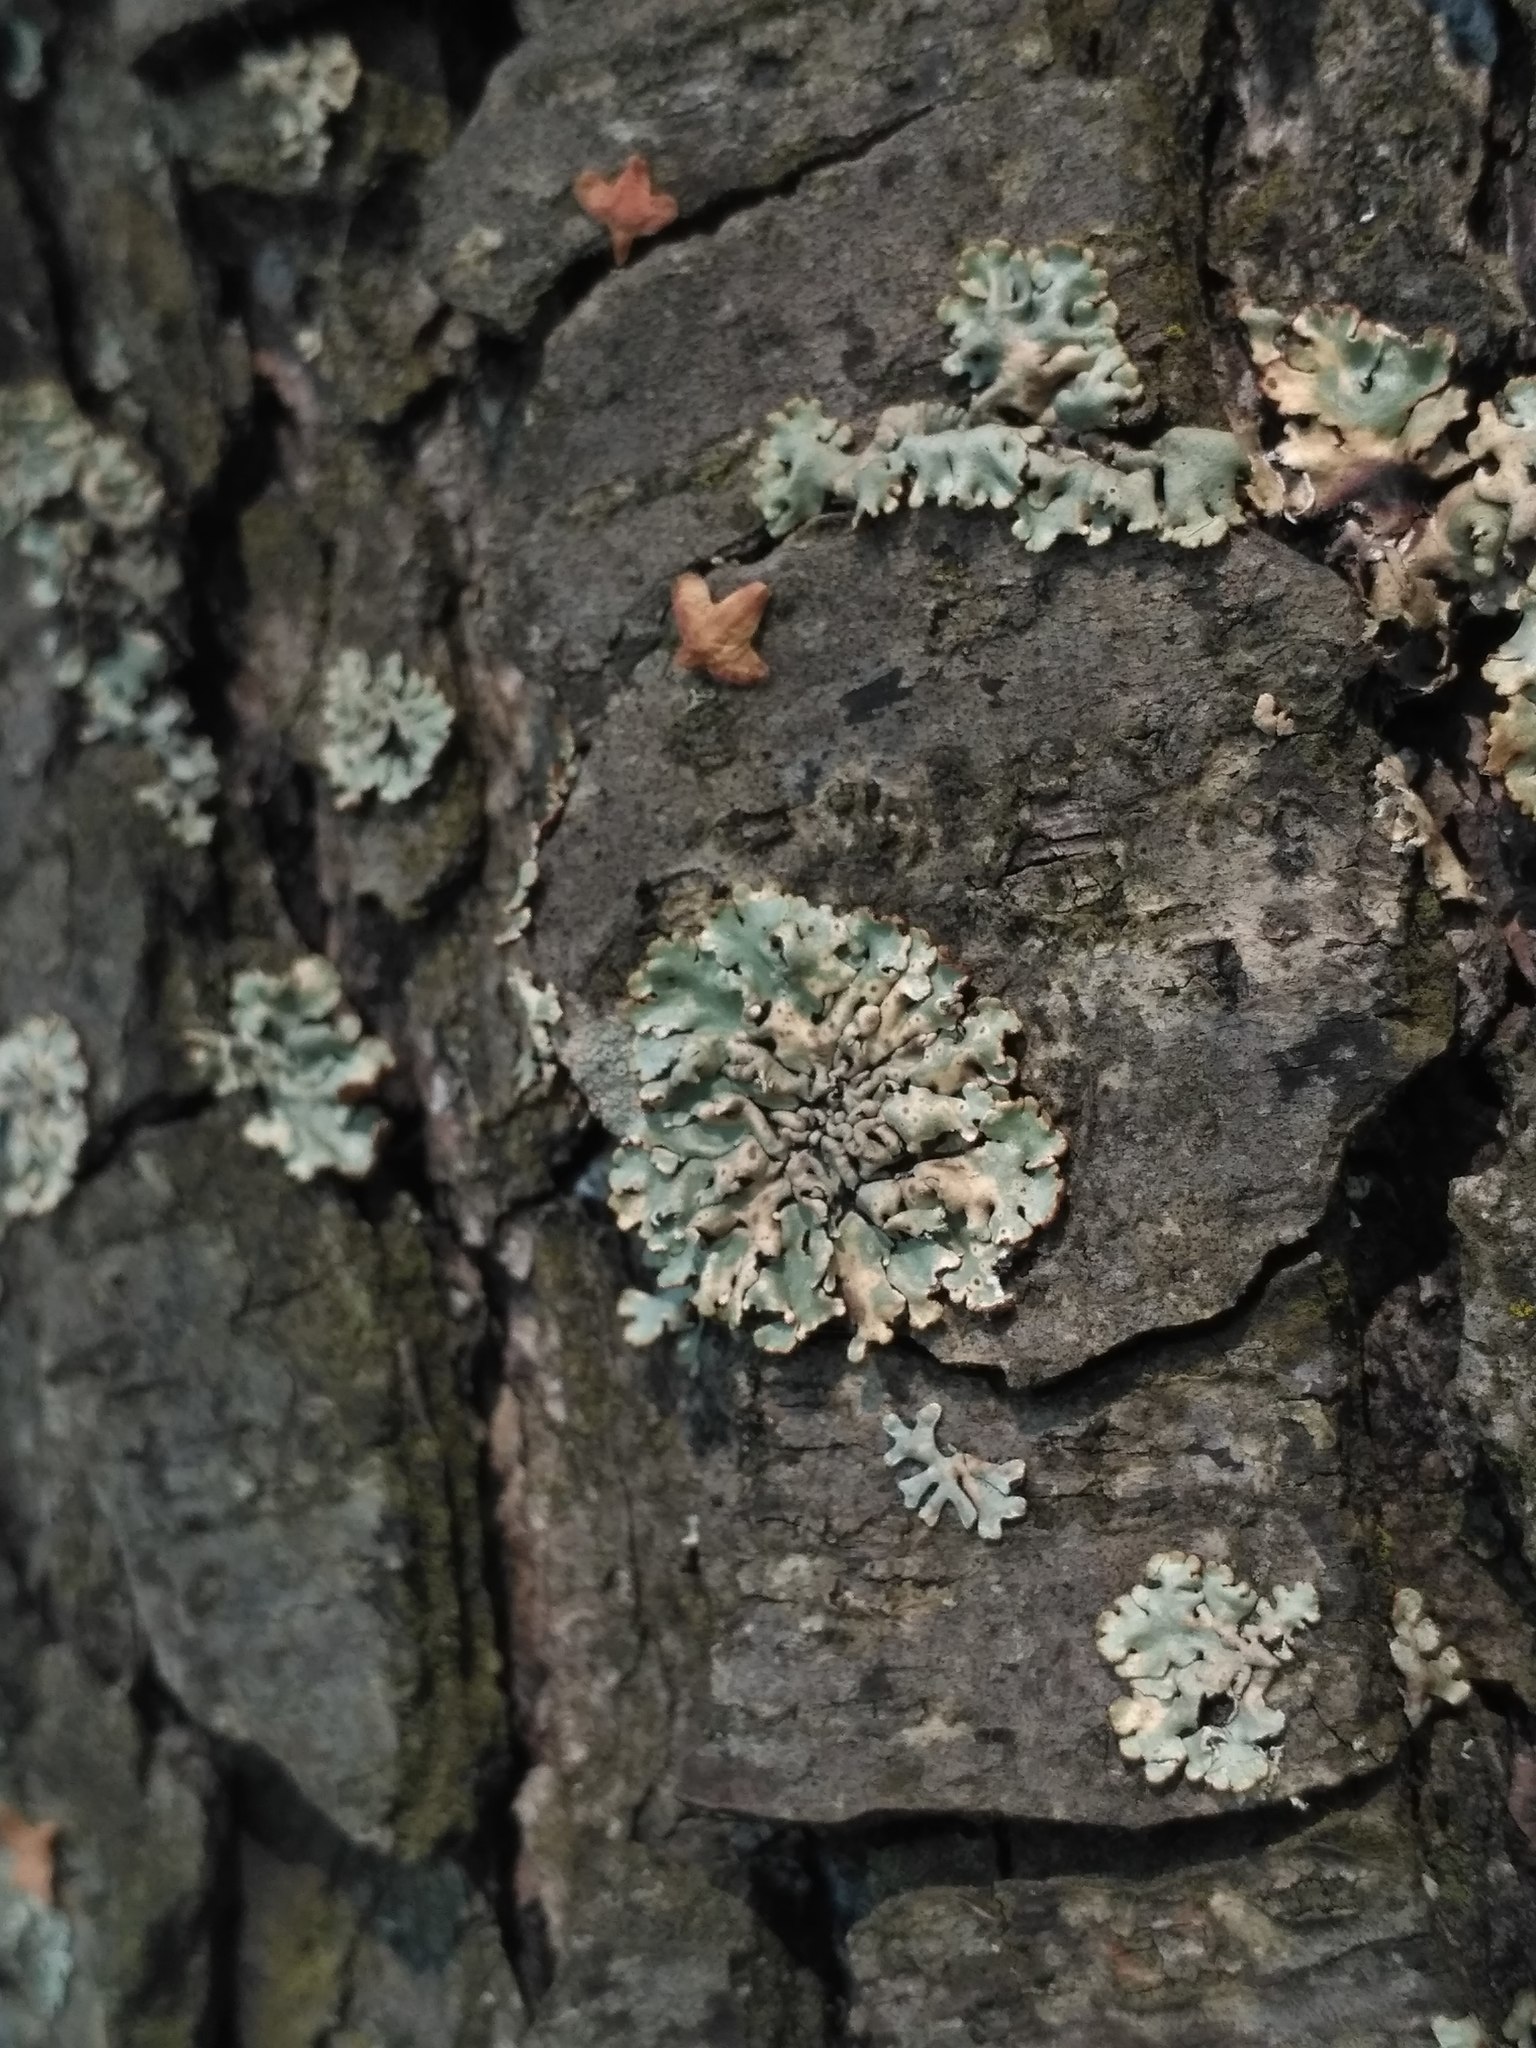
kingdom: Fungi
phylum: Ascomycota
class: Lecanoromycetes
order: Lecanorales
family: Parmeliaceae
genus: Hypogymnia
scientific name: Hypogymnia physodes
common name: Dark crottle
